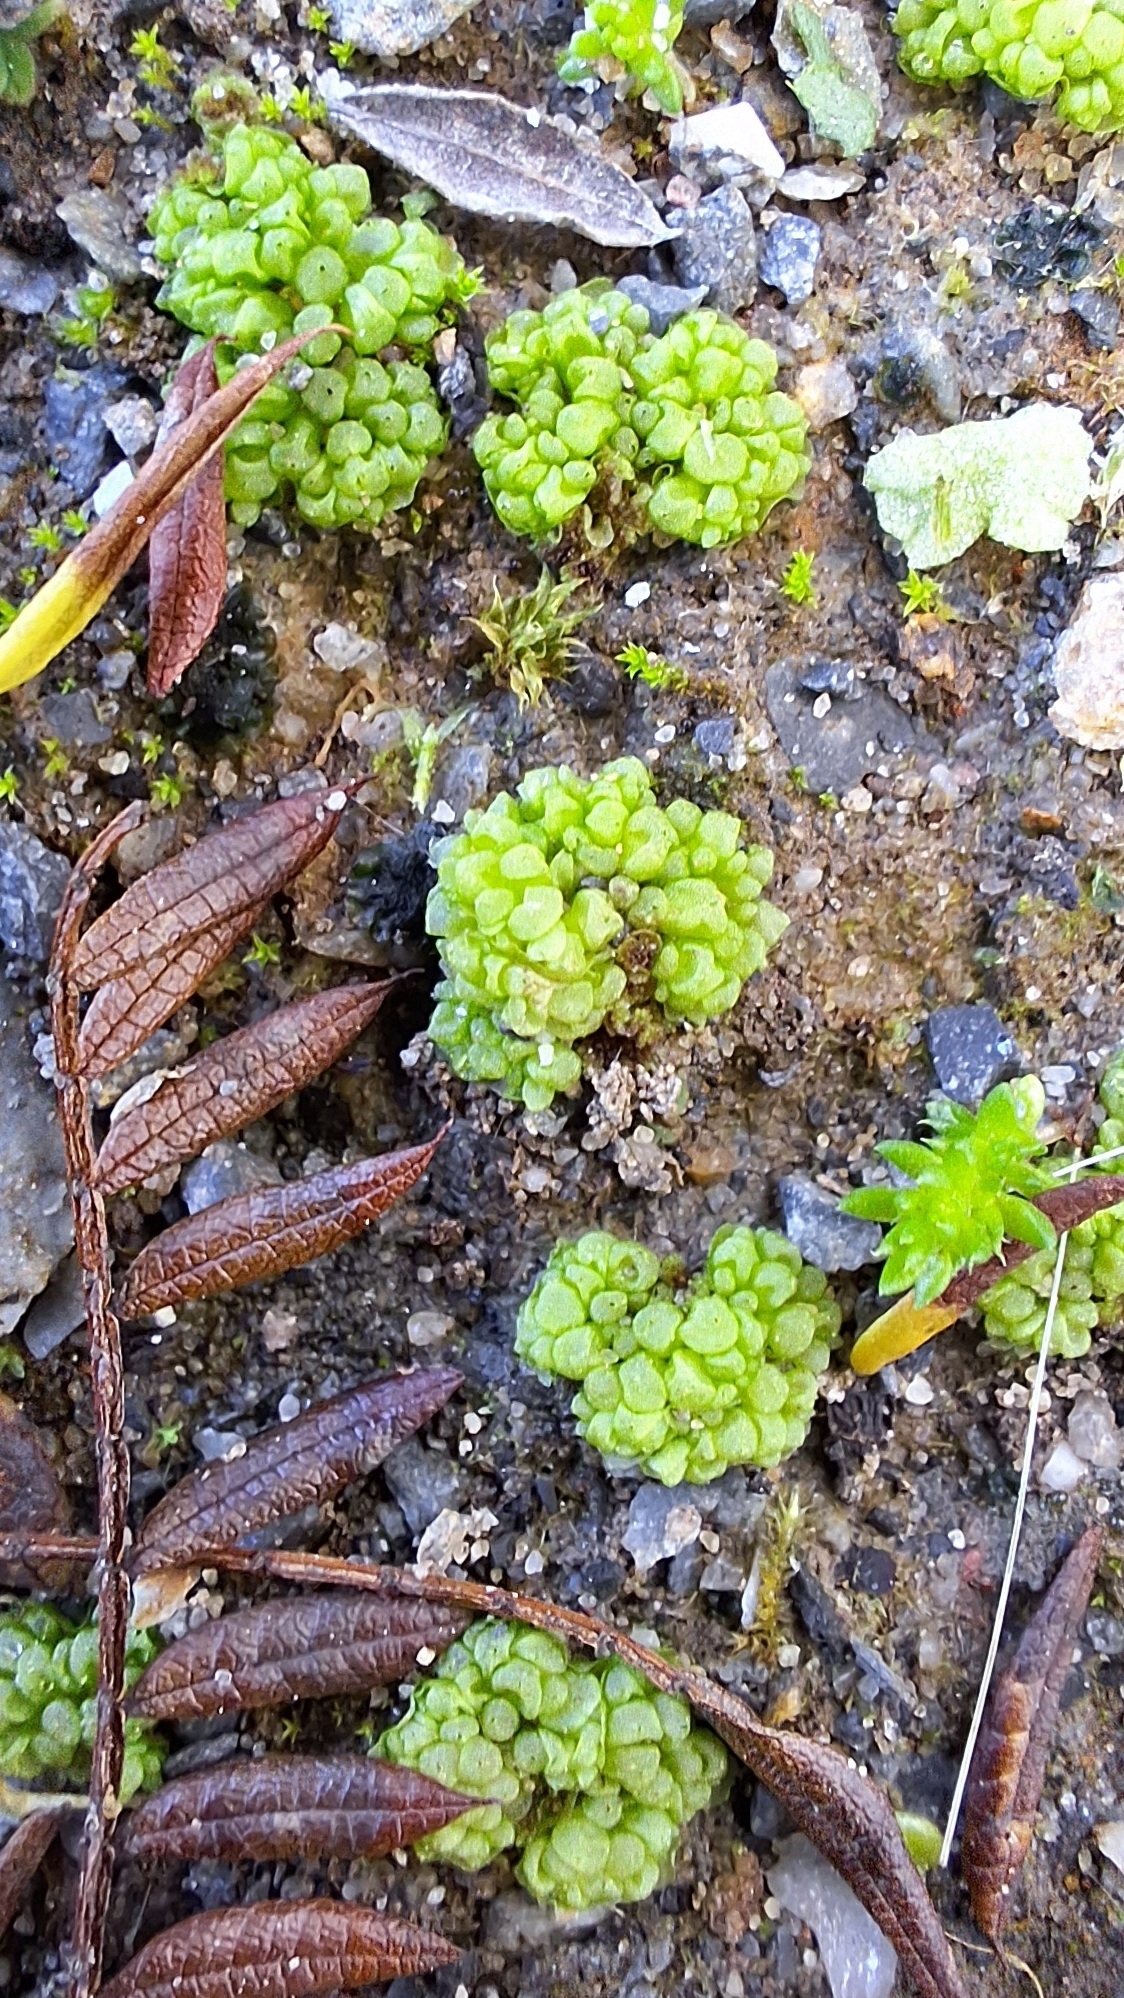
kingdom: Plantae
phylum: Marchantiophyta
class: Marchantiopsida
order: Sphaerocarpales
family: Sphaerocarpaceae
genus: Sphaerocarpos
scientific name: Sphaerocarpos texanus
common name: Texas balloonwort
